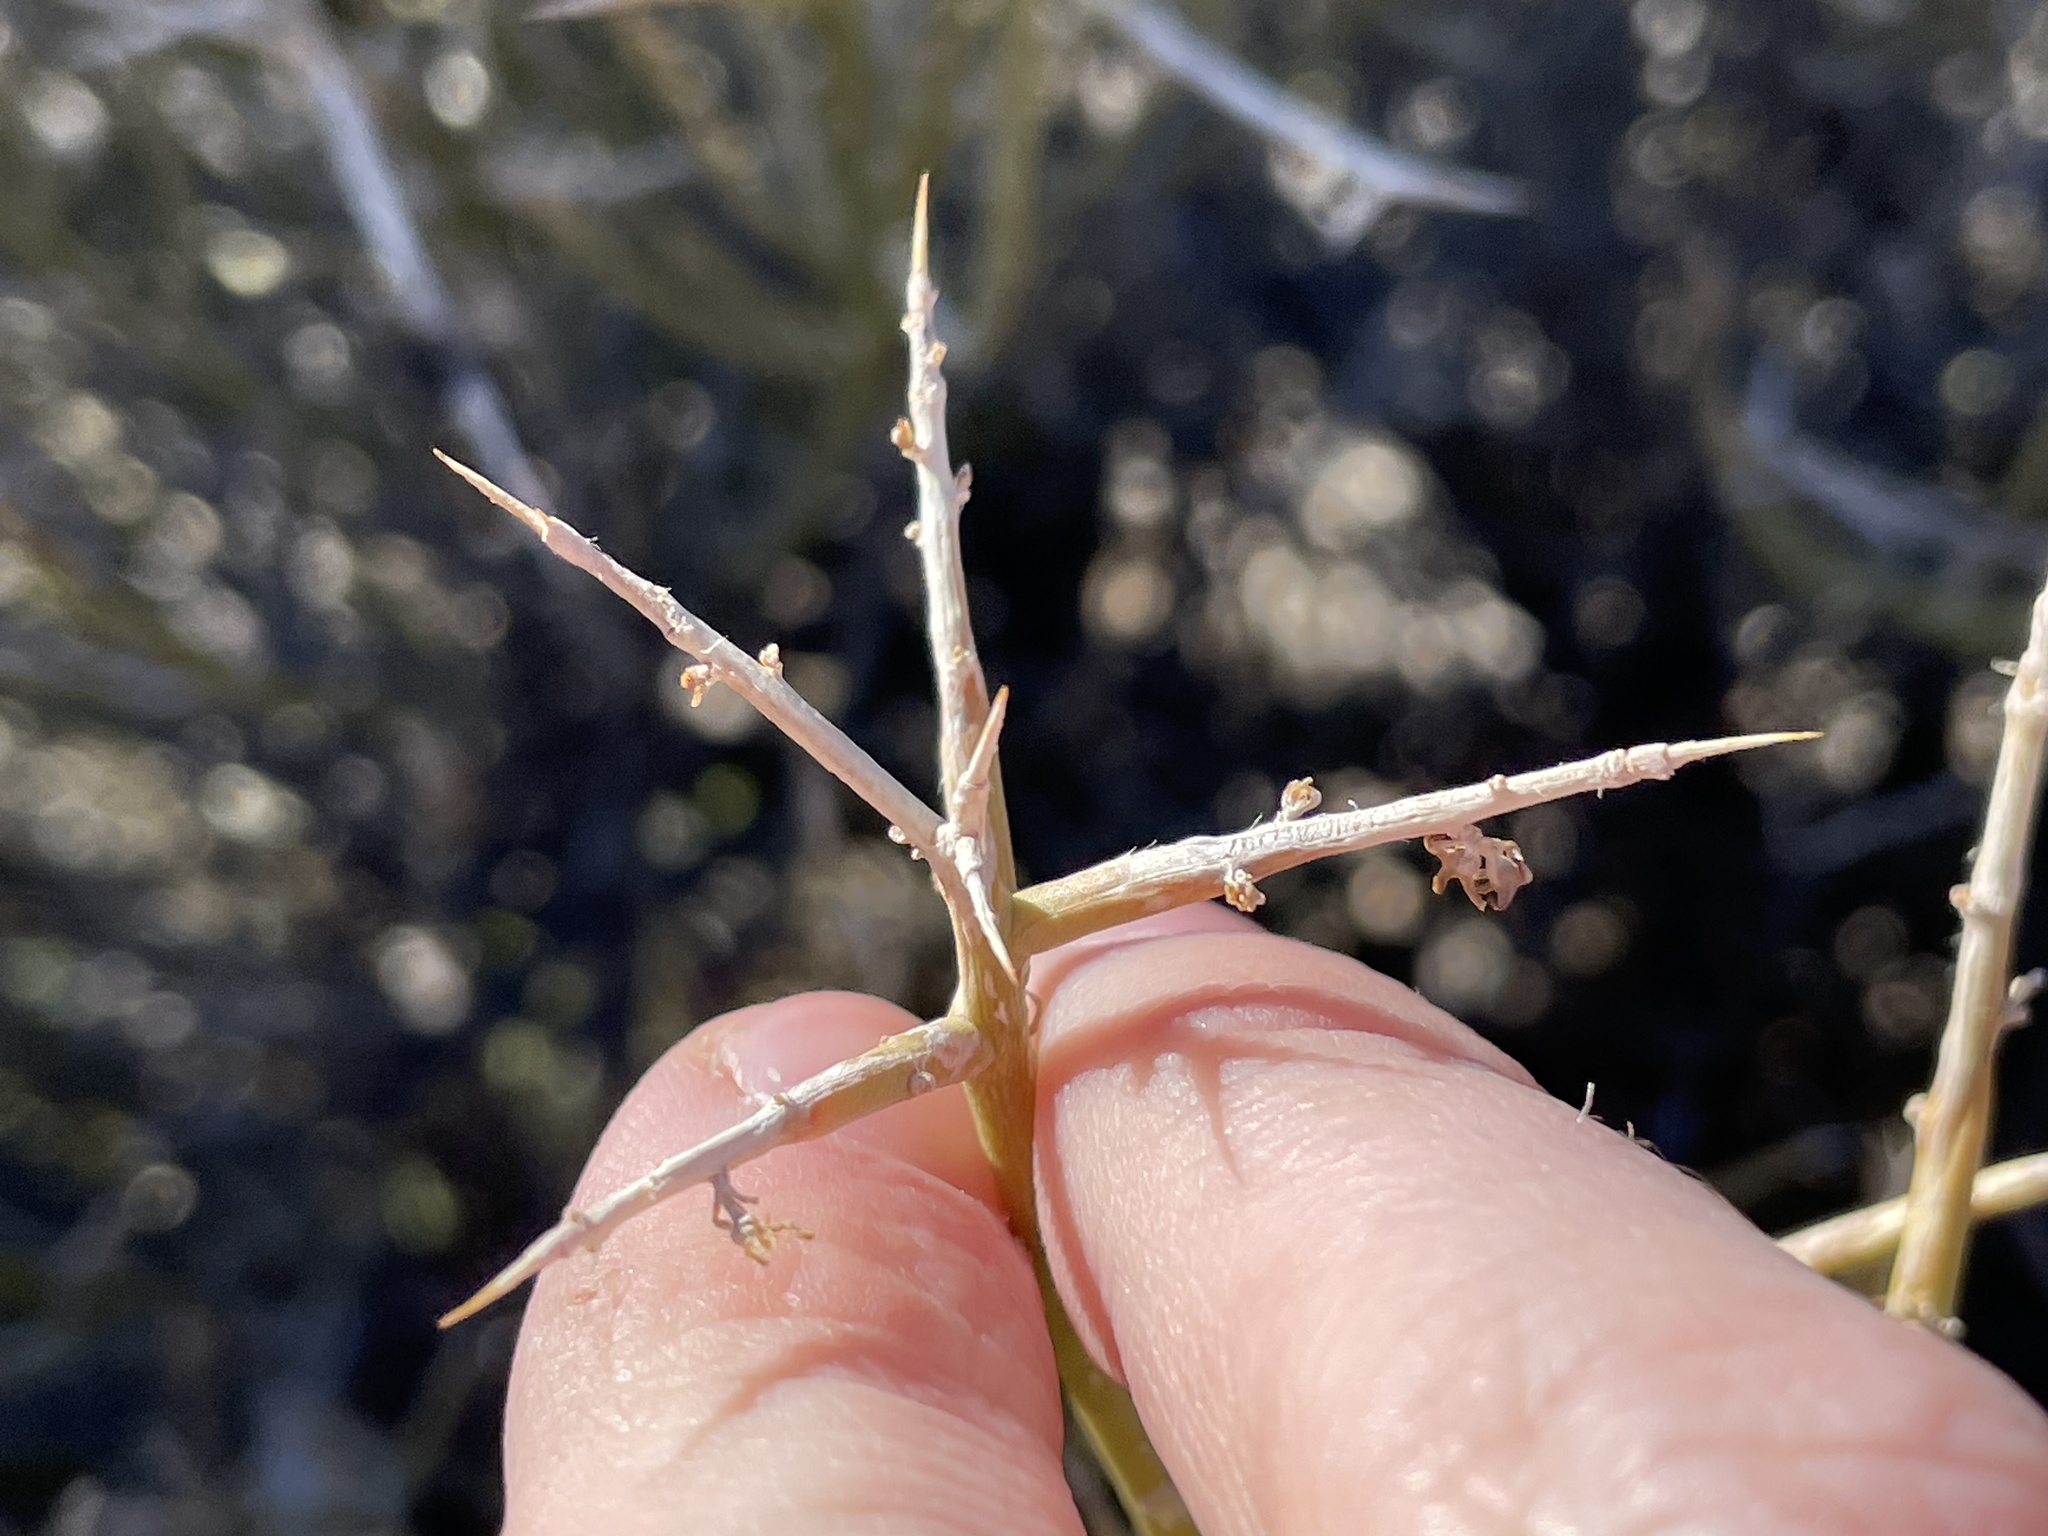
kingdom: Plantae
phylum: Tracheophyta
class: Magnoliopsida
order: Lamiales
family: Oleaceae
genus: Menodora
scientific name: Menodora spinescens
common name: Spiny menodora
